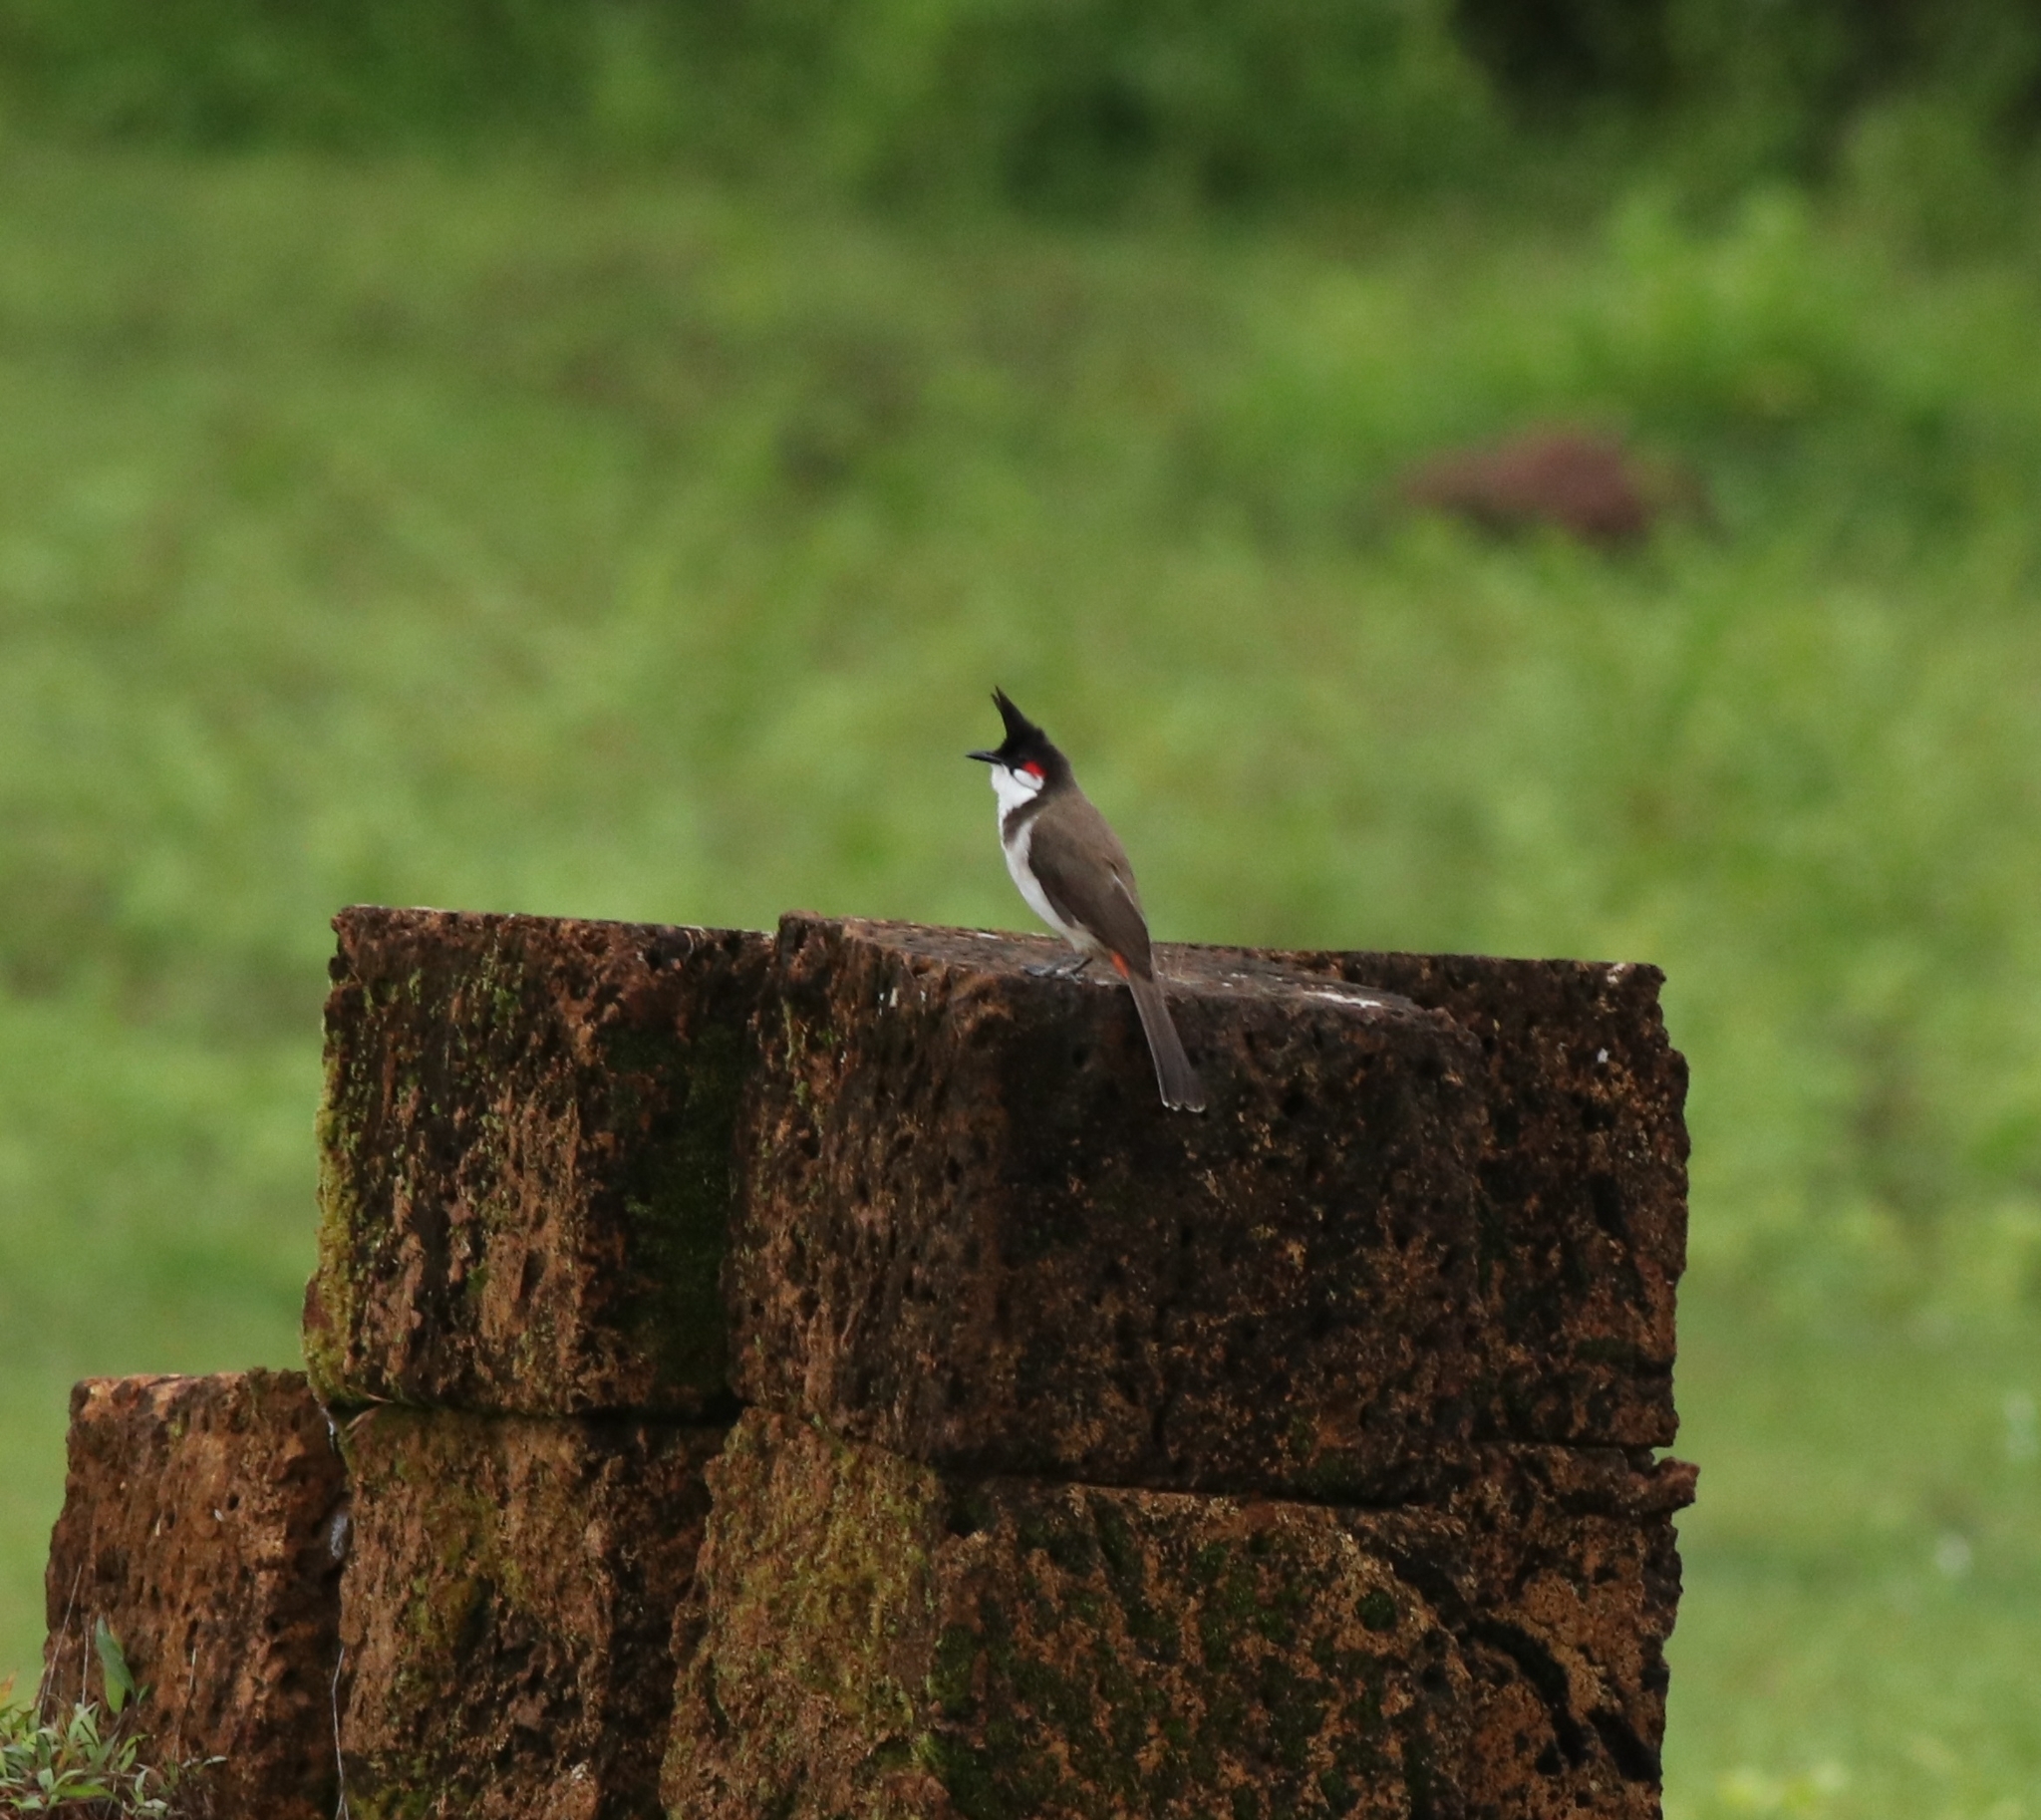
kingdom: Animalia
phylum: Chordata
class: Aves
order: Passeriformes
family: Pycnonotidae
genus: Pycnonotus
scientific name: Pycnonotus jocosus
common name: Red-whiskered bulbul
